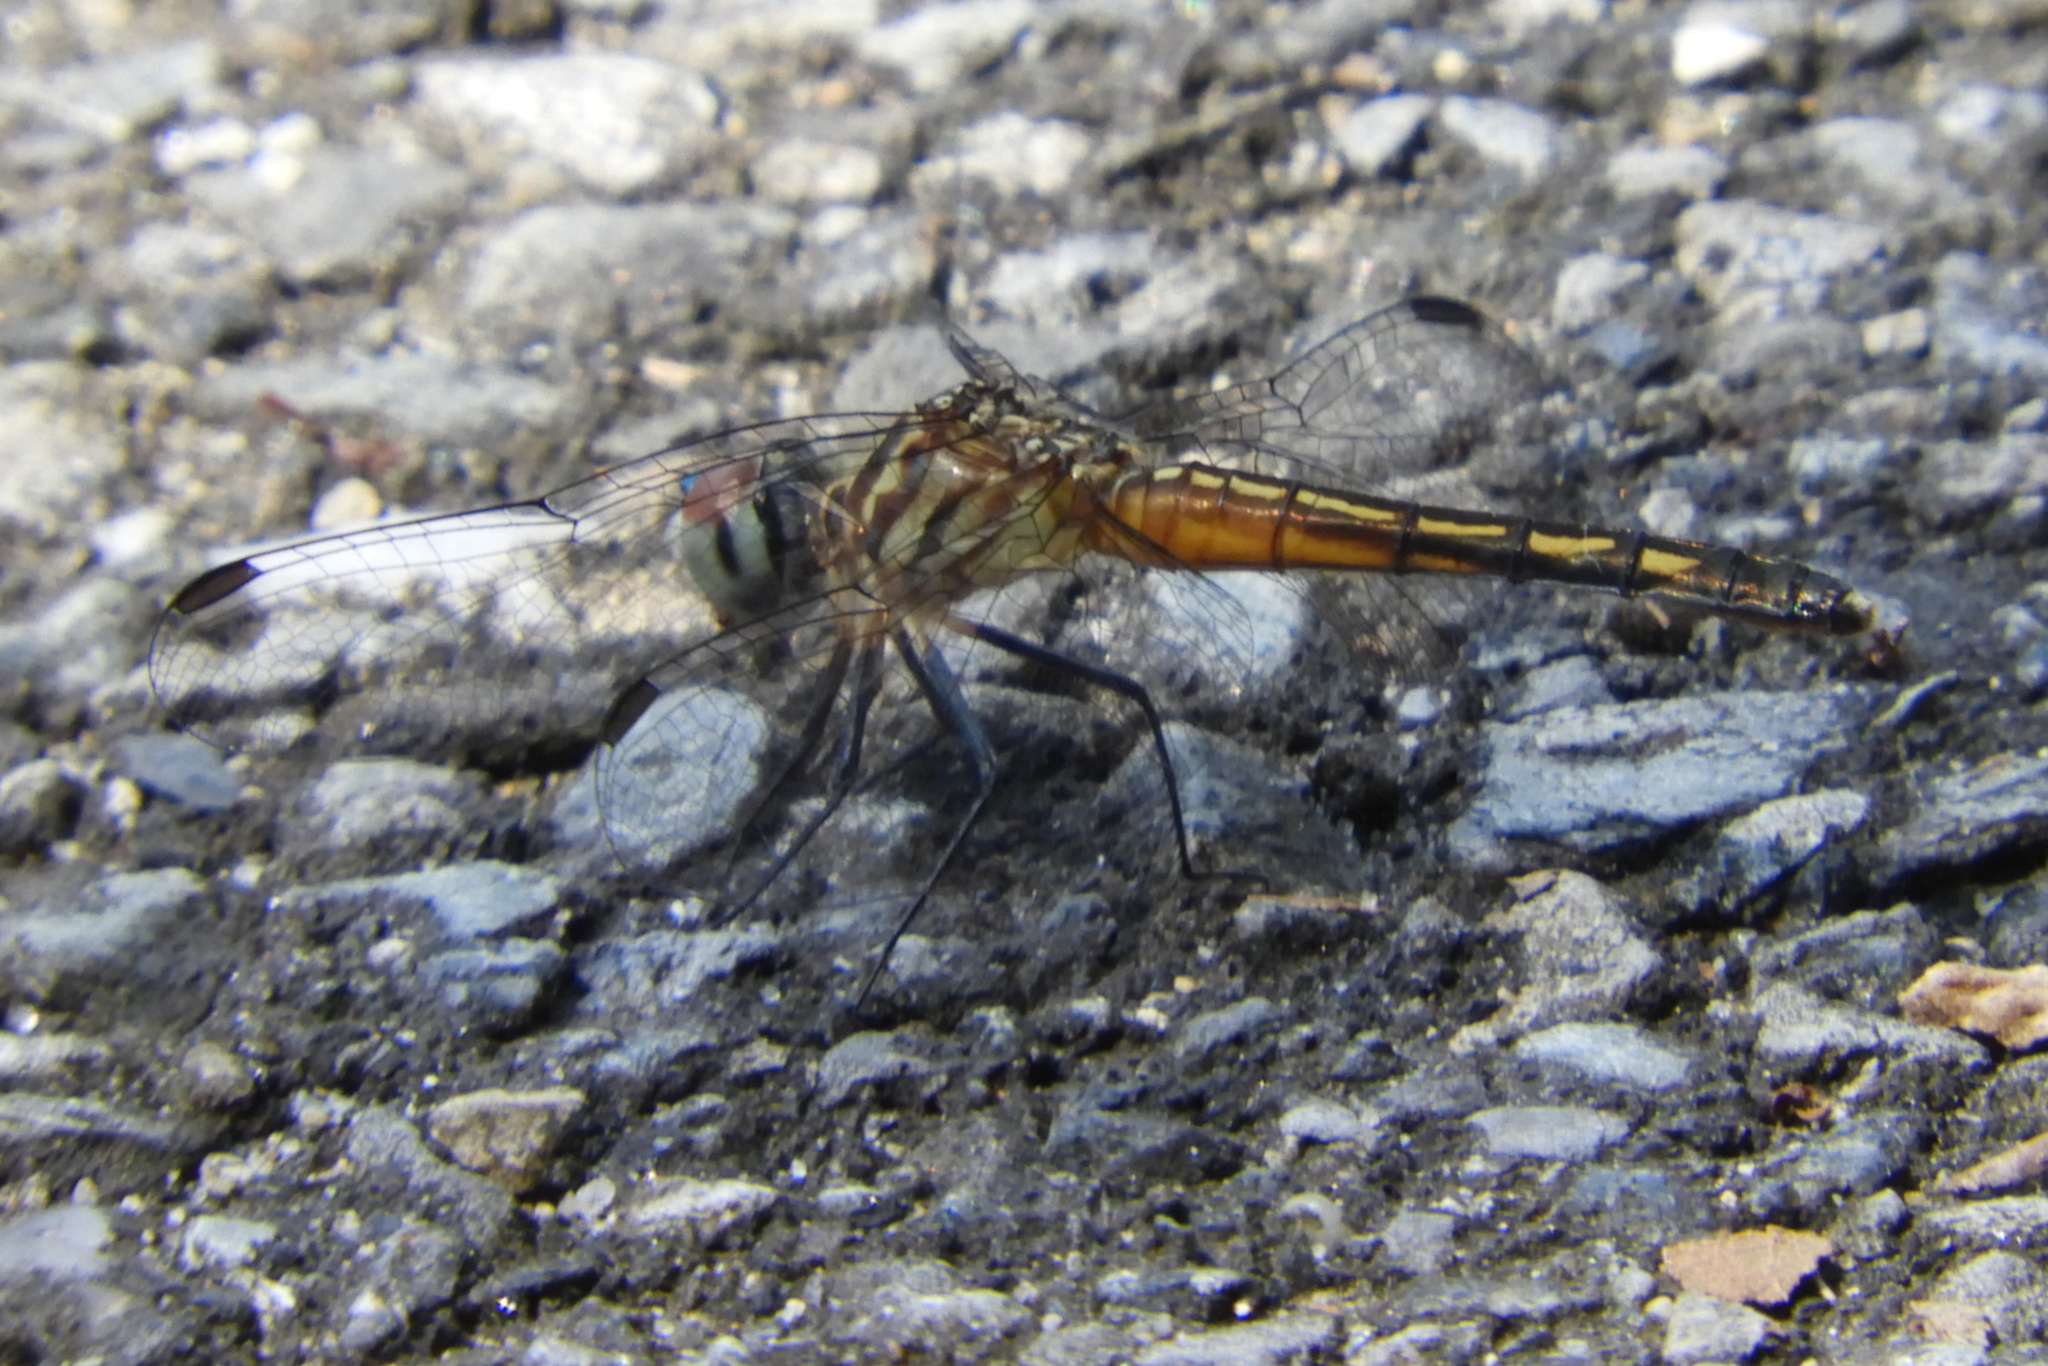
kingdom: Animalia
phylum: Arthropoda
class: Insecta
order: Odonata
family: Libellulidae
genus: Pachydiplax
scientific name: Pachydiplax longipennis
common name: Blue dasher
